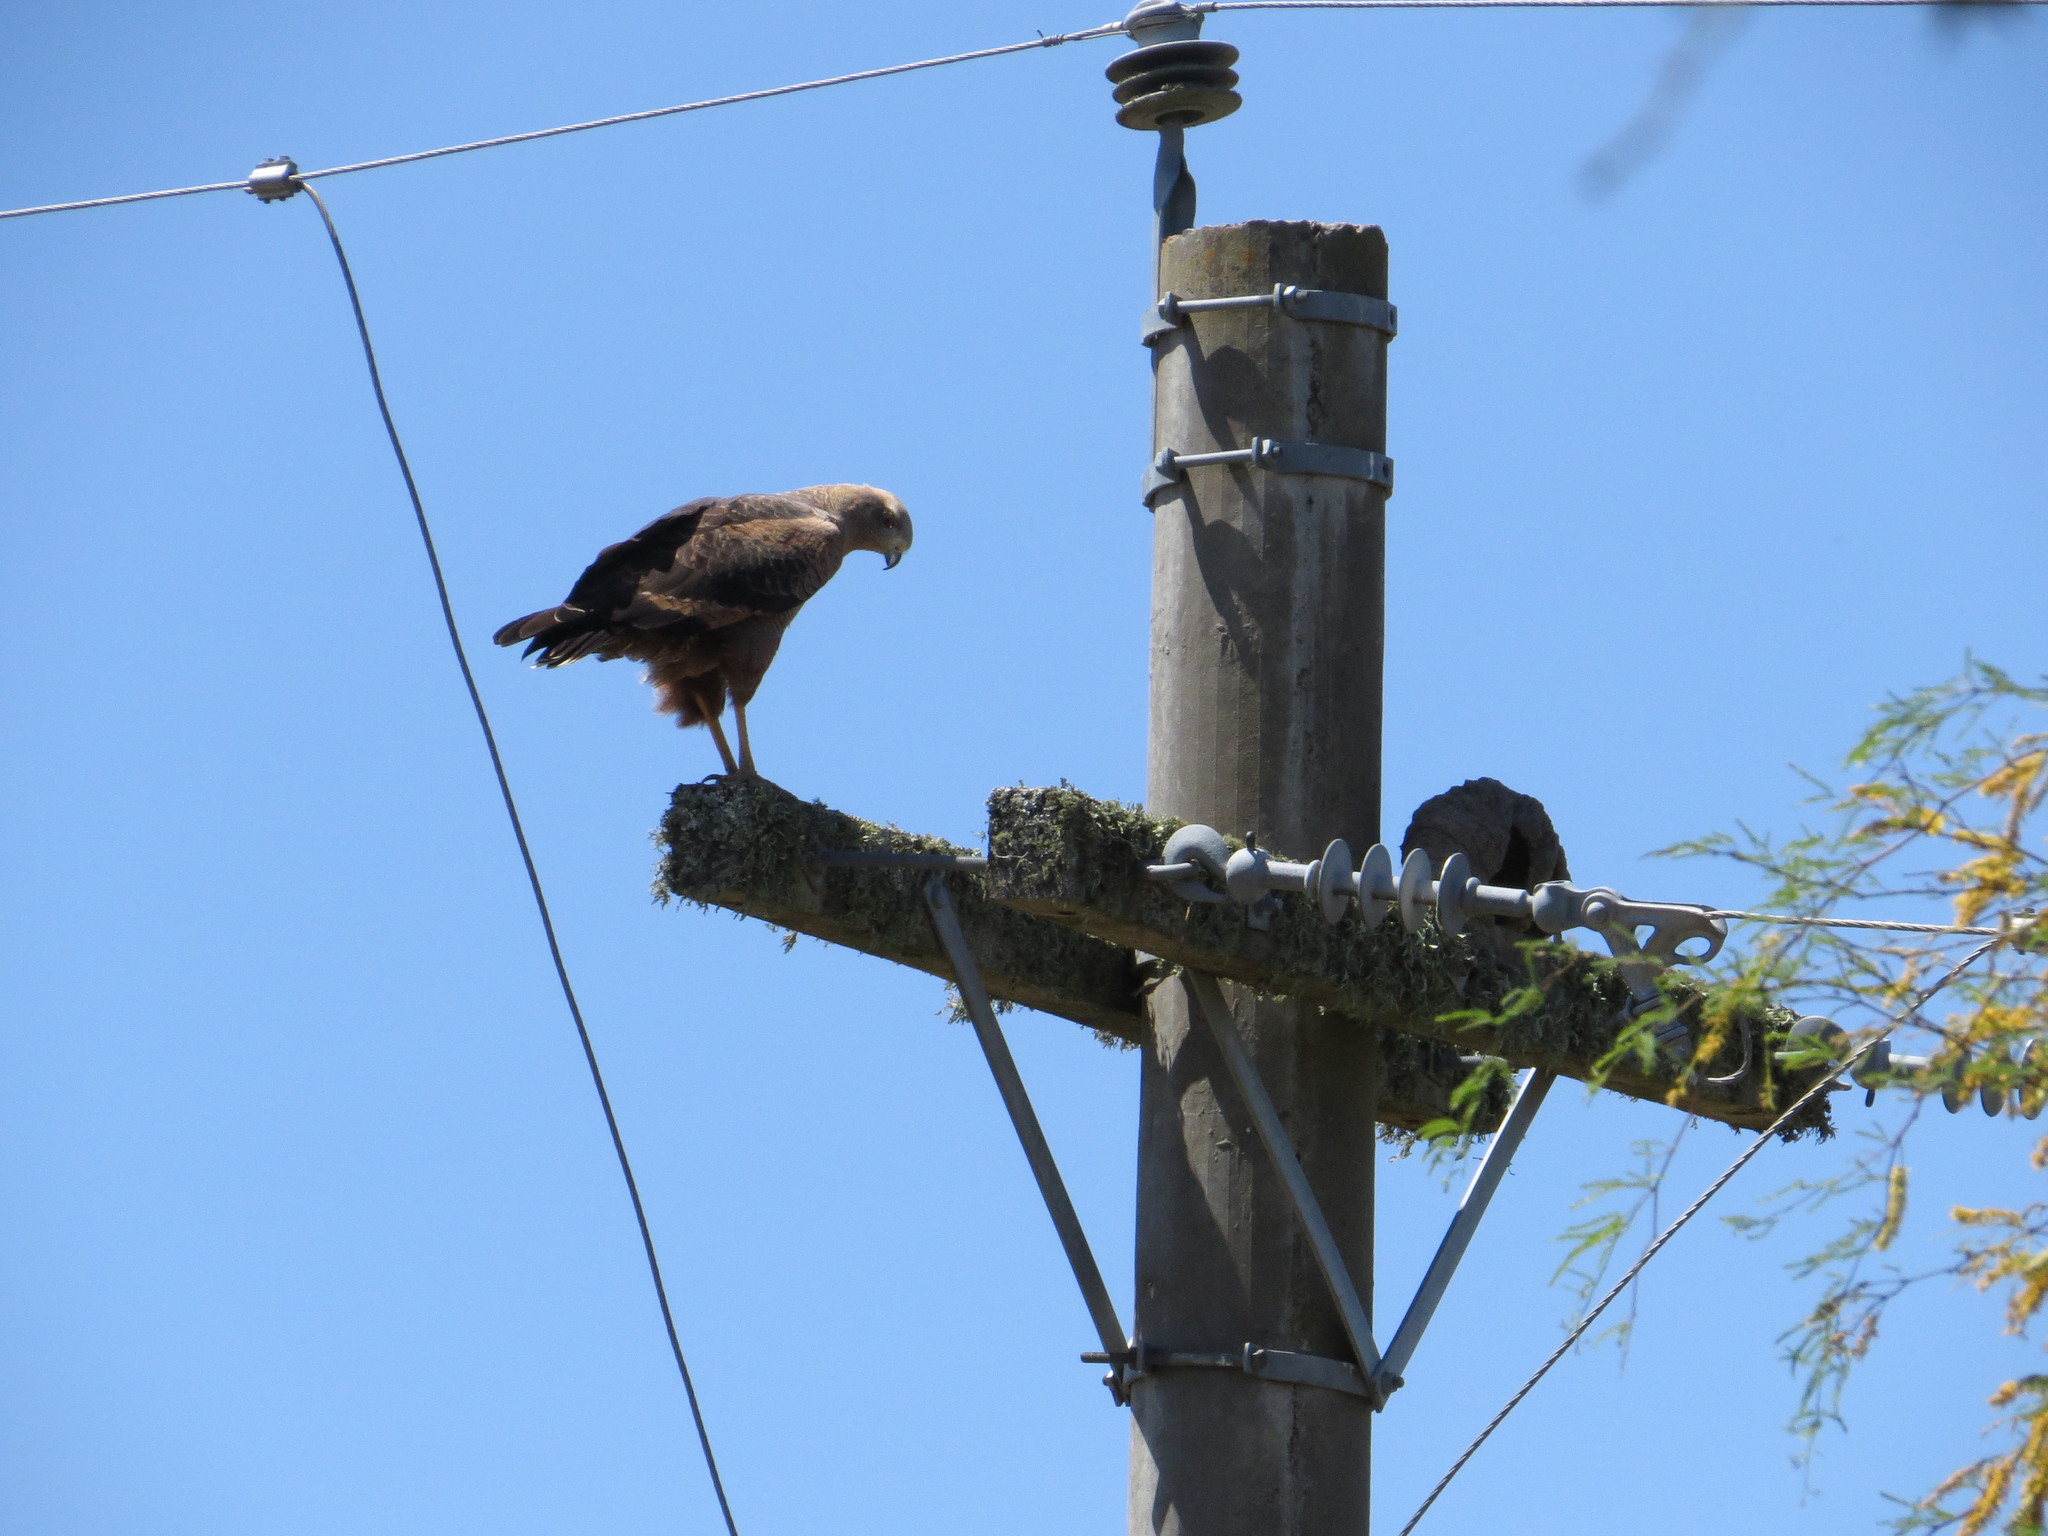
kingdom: Animalia
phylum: Chordata
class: Aves
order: Accipitriformes
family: Accipitridae
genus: Buteogallus
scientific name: Buteogallus meridionalis
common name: Savanna hawk
